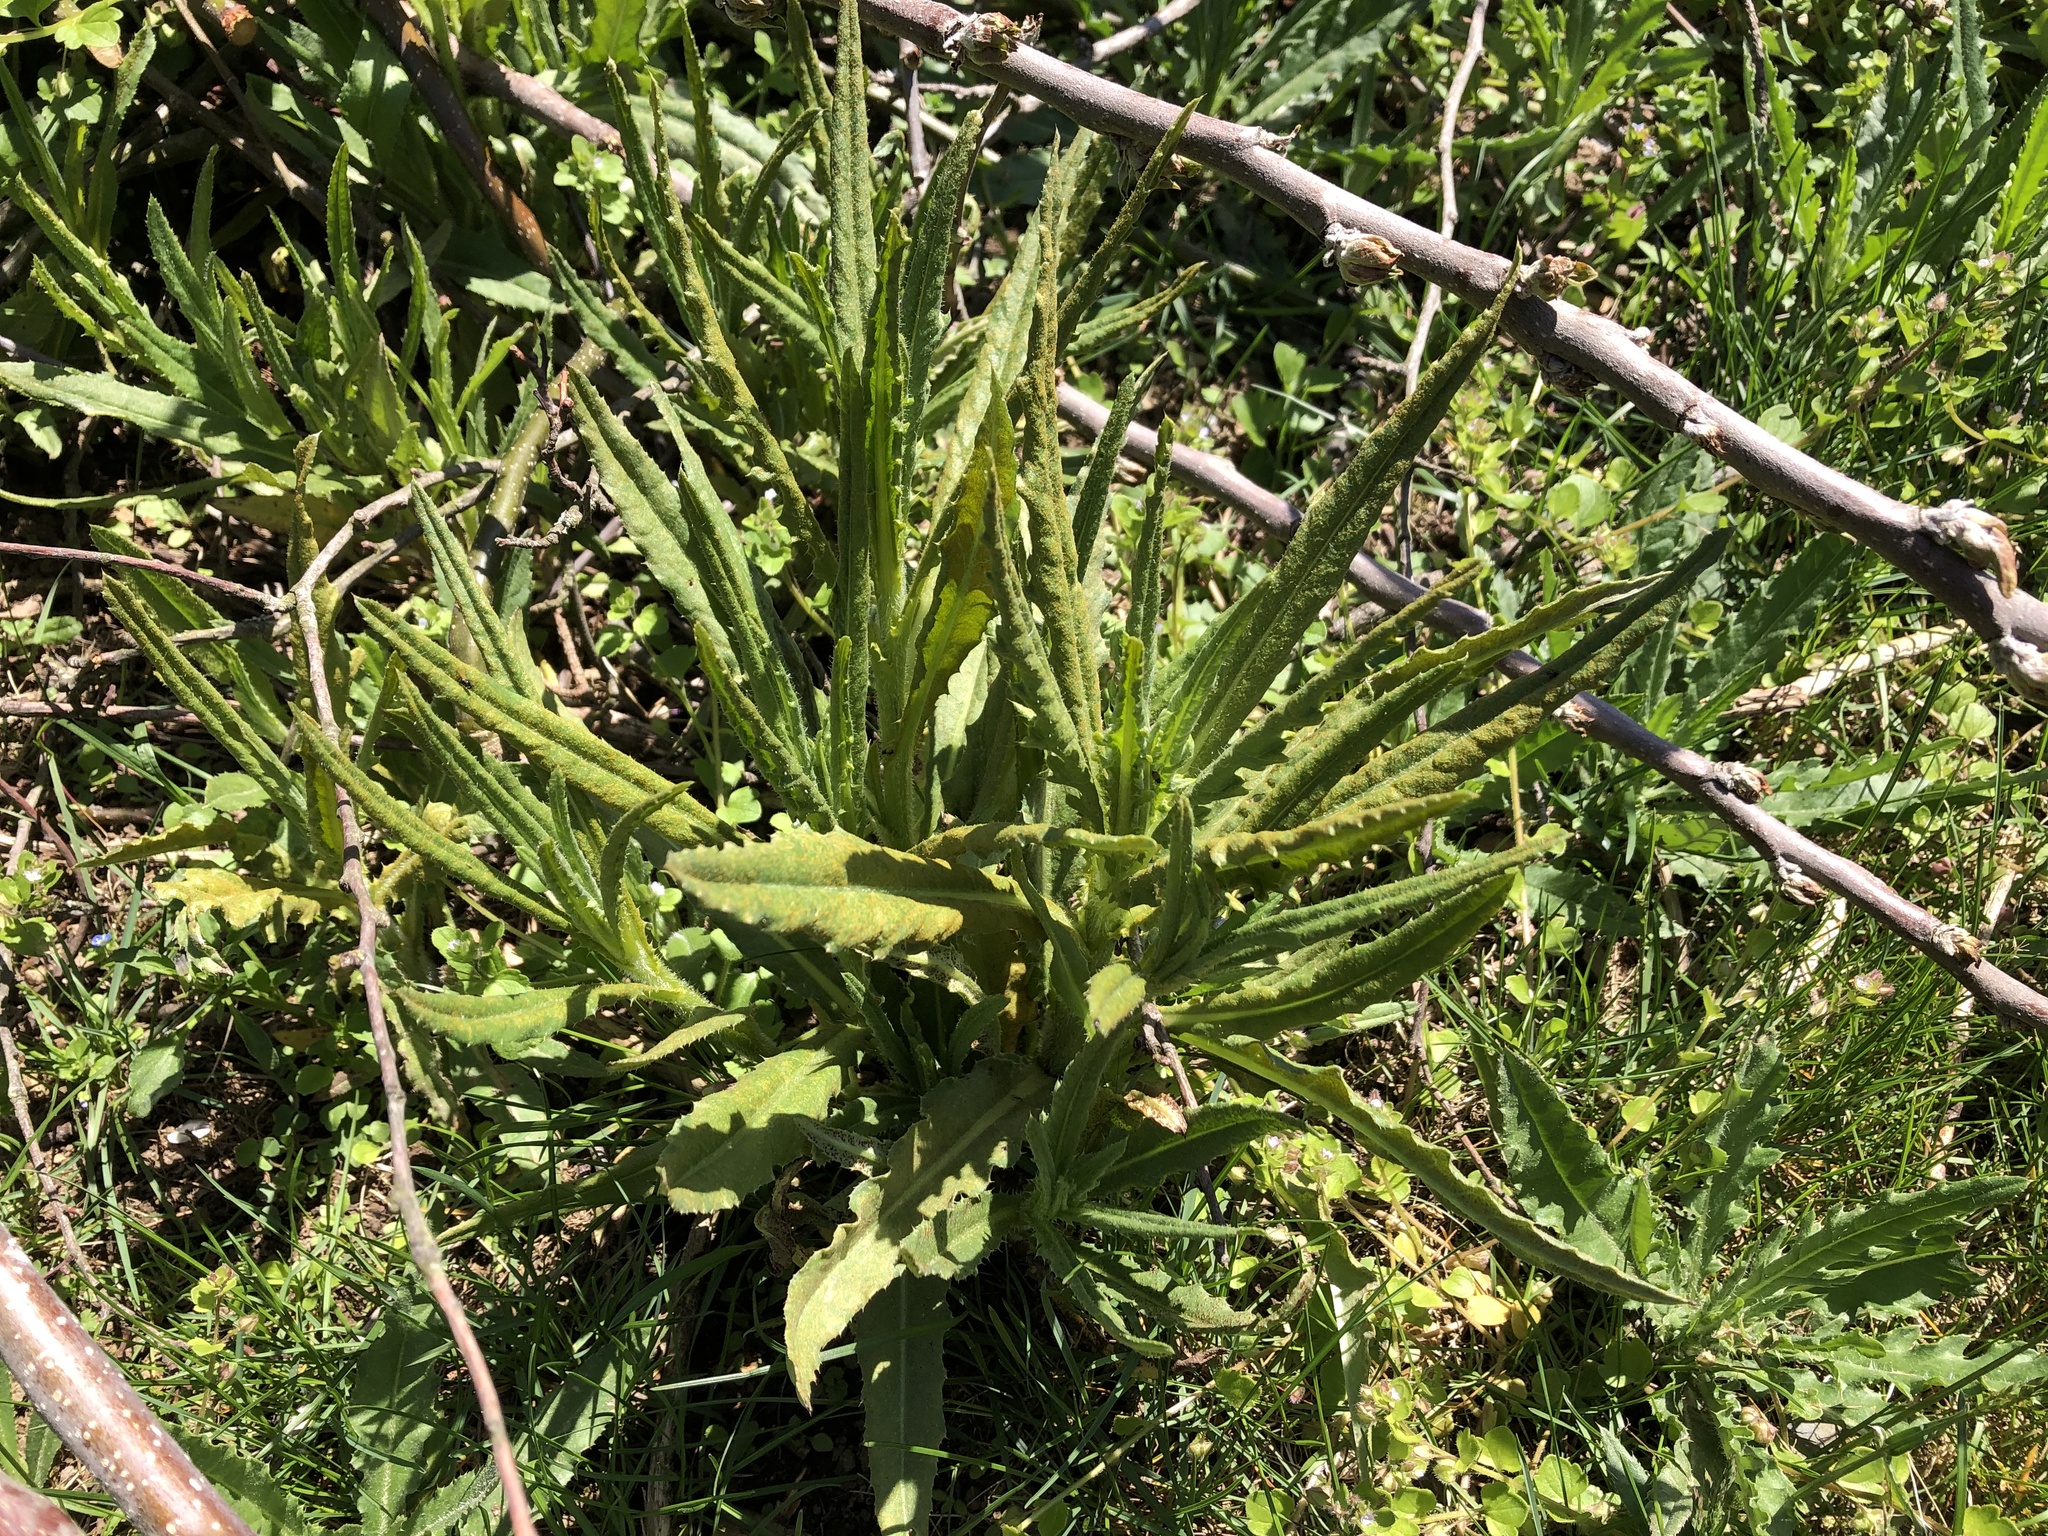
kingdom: Plantae
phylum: Tracheophyta
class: Magnoliopsida
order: Asterales
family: Asteraceae
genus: Cirsium
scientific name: Cirsium arvense
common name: Creeping thistle
